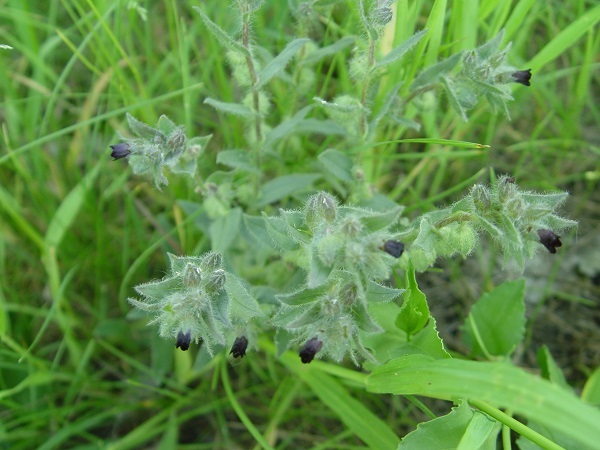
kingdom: Plantae
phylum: Tracheophyta
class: Magnoliopsida
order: Boraginales
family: Boraginaceae
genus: Nonea
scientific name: Nonea pulla
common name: Brown nonea
